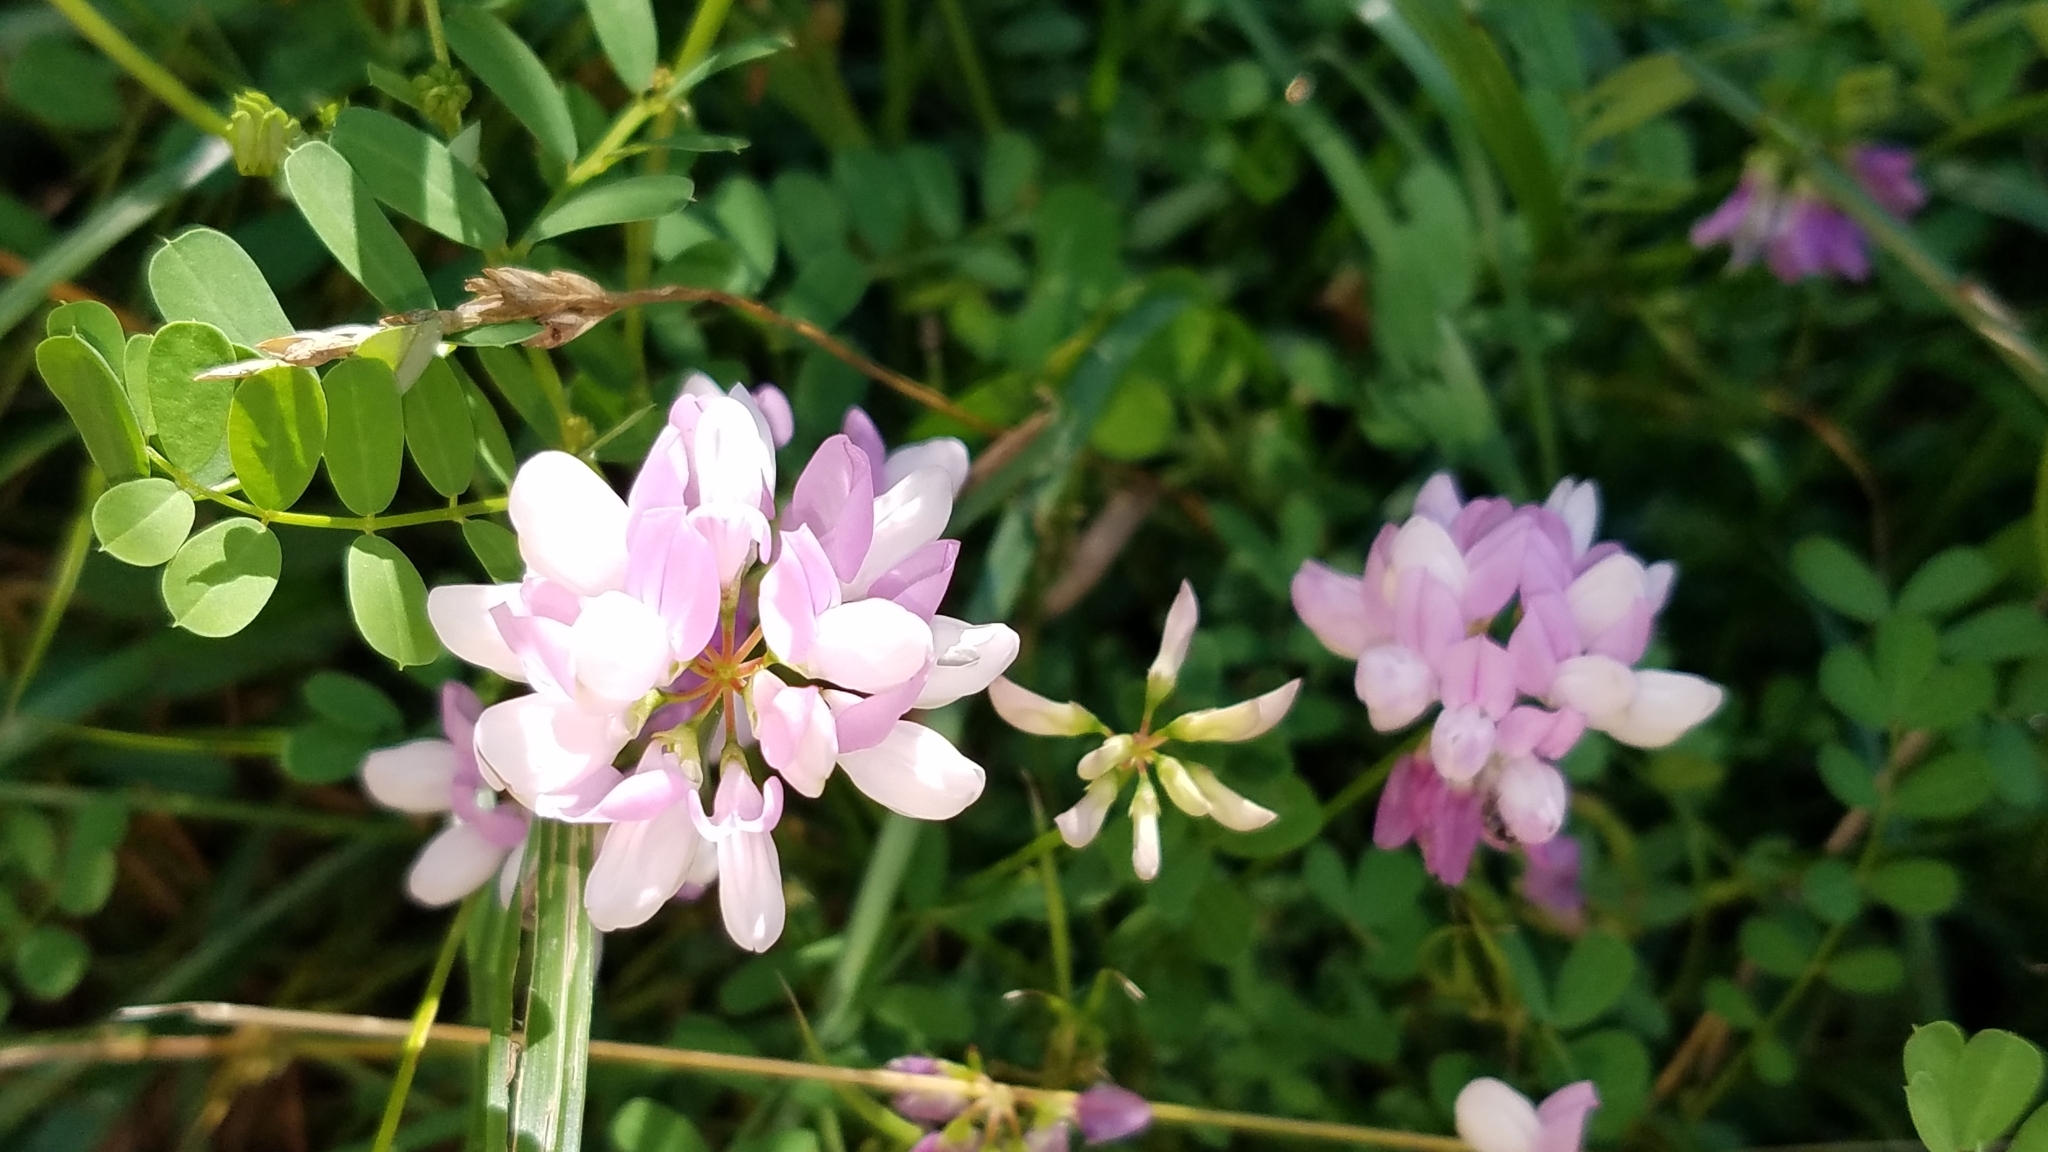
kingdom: Plantae
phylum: Tracheophyta
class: Magnoliopsida
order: Fabales
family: Fabaceae
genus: Coronilla
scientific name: Coronilla varia
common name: Crownvetch
